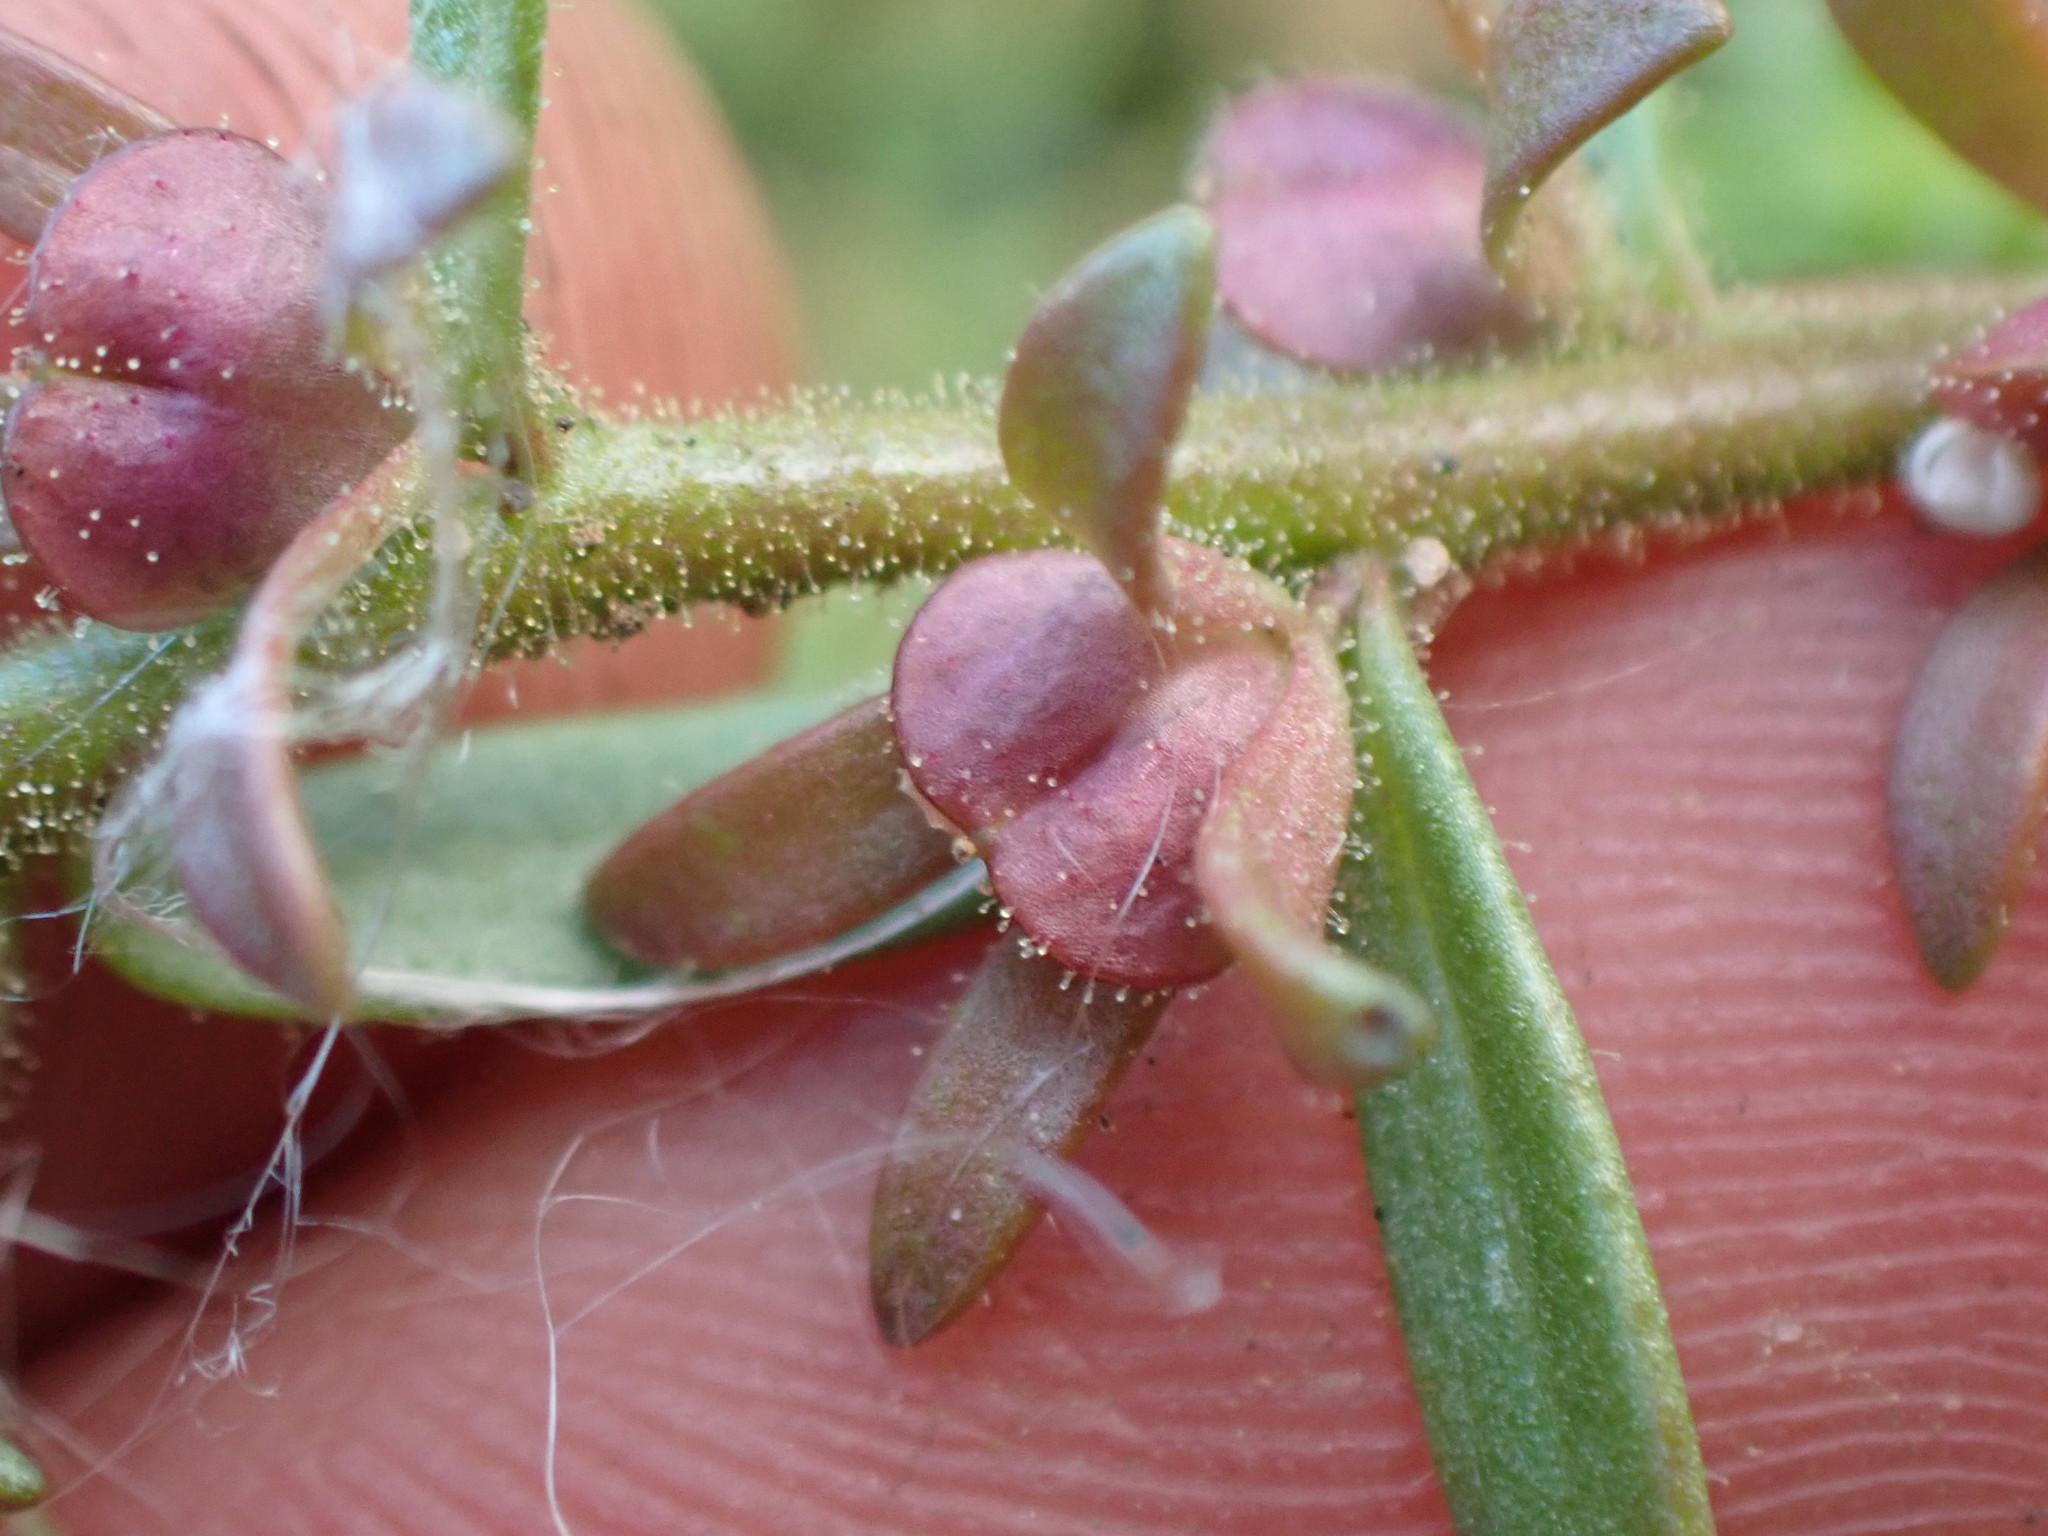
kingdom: Plantae
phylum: Tracheophyta
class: Magnoliopsida
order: Lamiales
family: Plantaginaceae
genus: Veronica
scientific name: Veronica peregrina
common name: Neckweed
